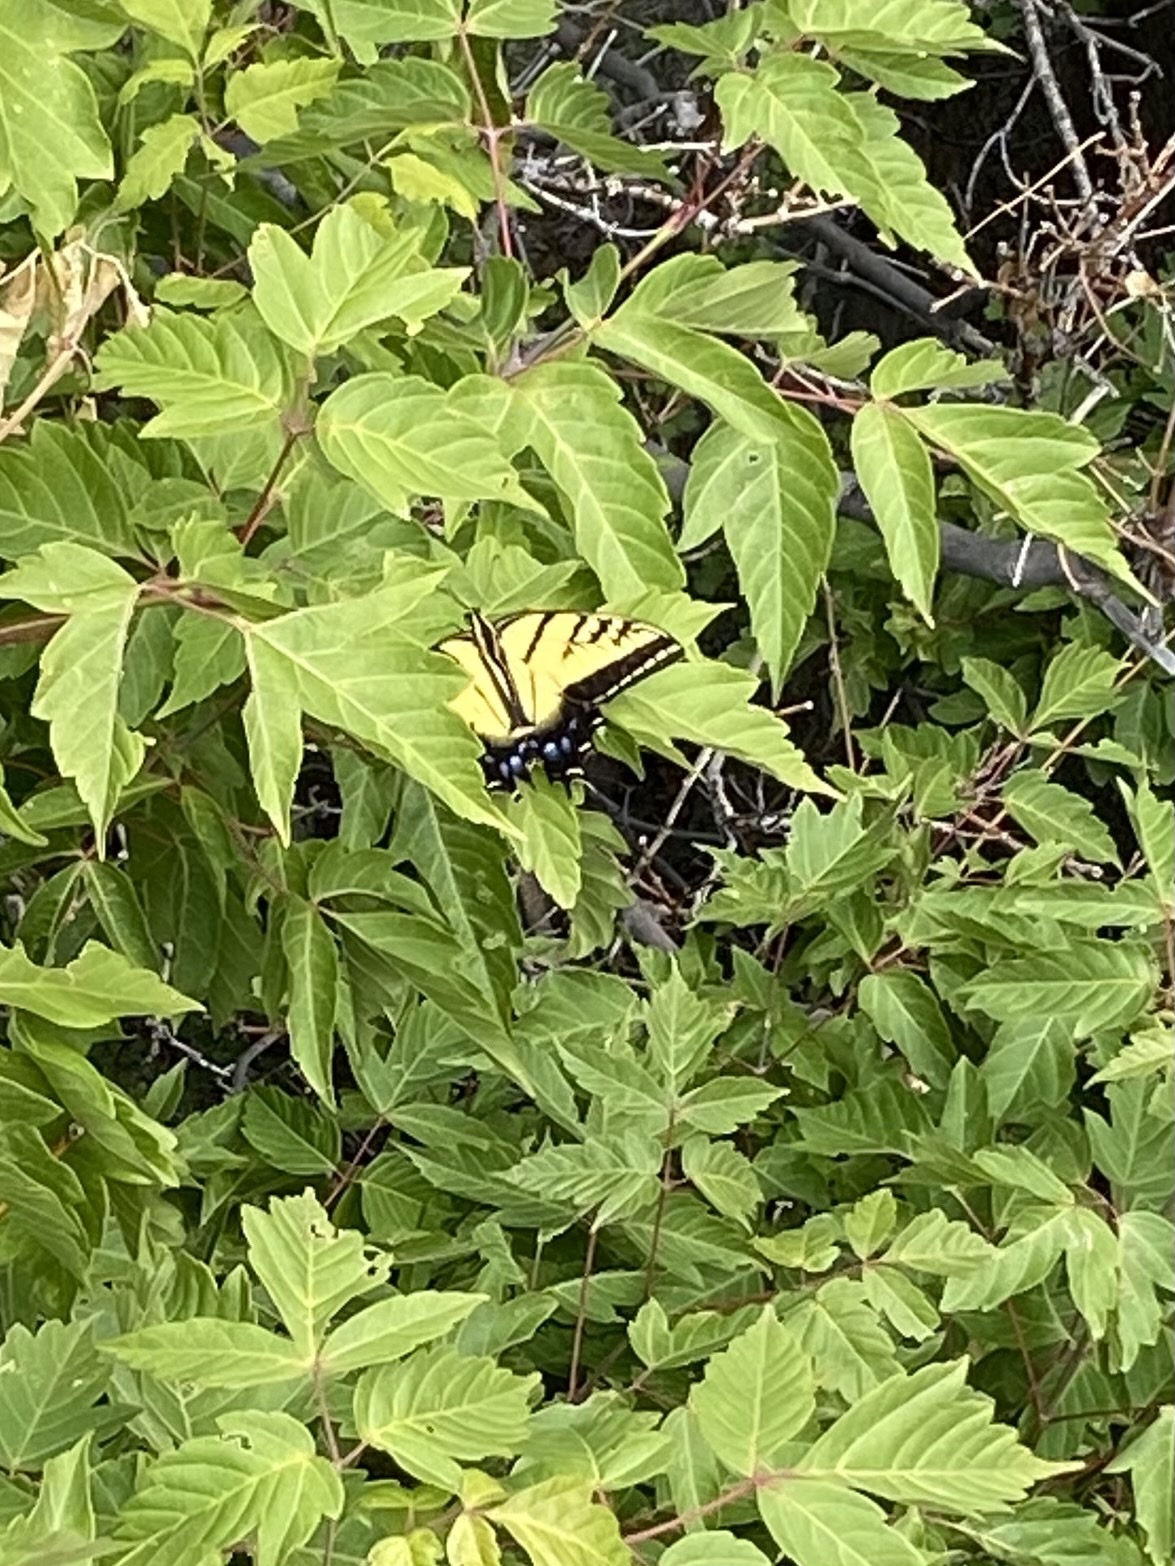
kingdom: Animalia
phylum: Arthropoda
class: Insecta
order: Lepidoptera
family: Papilionidae
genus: Papilio
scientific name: Papilio multicaudata
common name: Two-tailed tiger swallowtail
